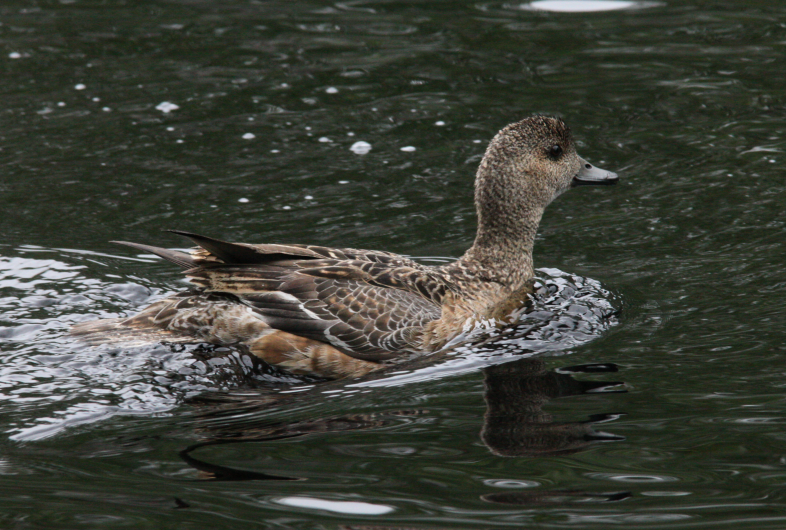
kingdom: Animalia
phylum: Chordata
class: Aves
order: Anseriformes
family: Anatidae
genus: Mareca
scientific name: Mareca penelope
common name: Eurasian wigeon
